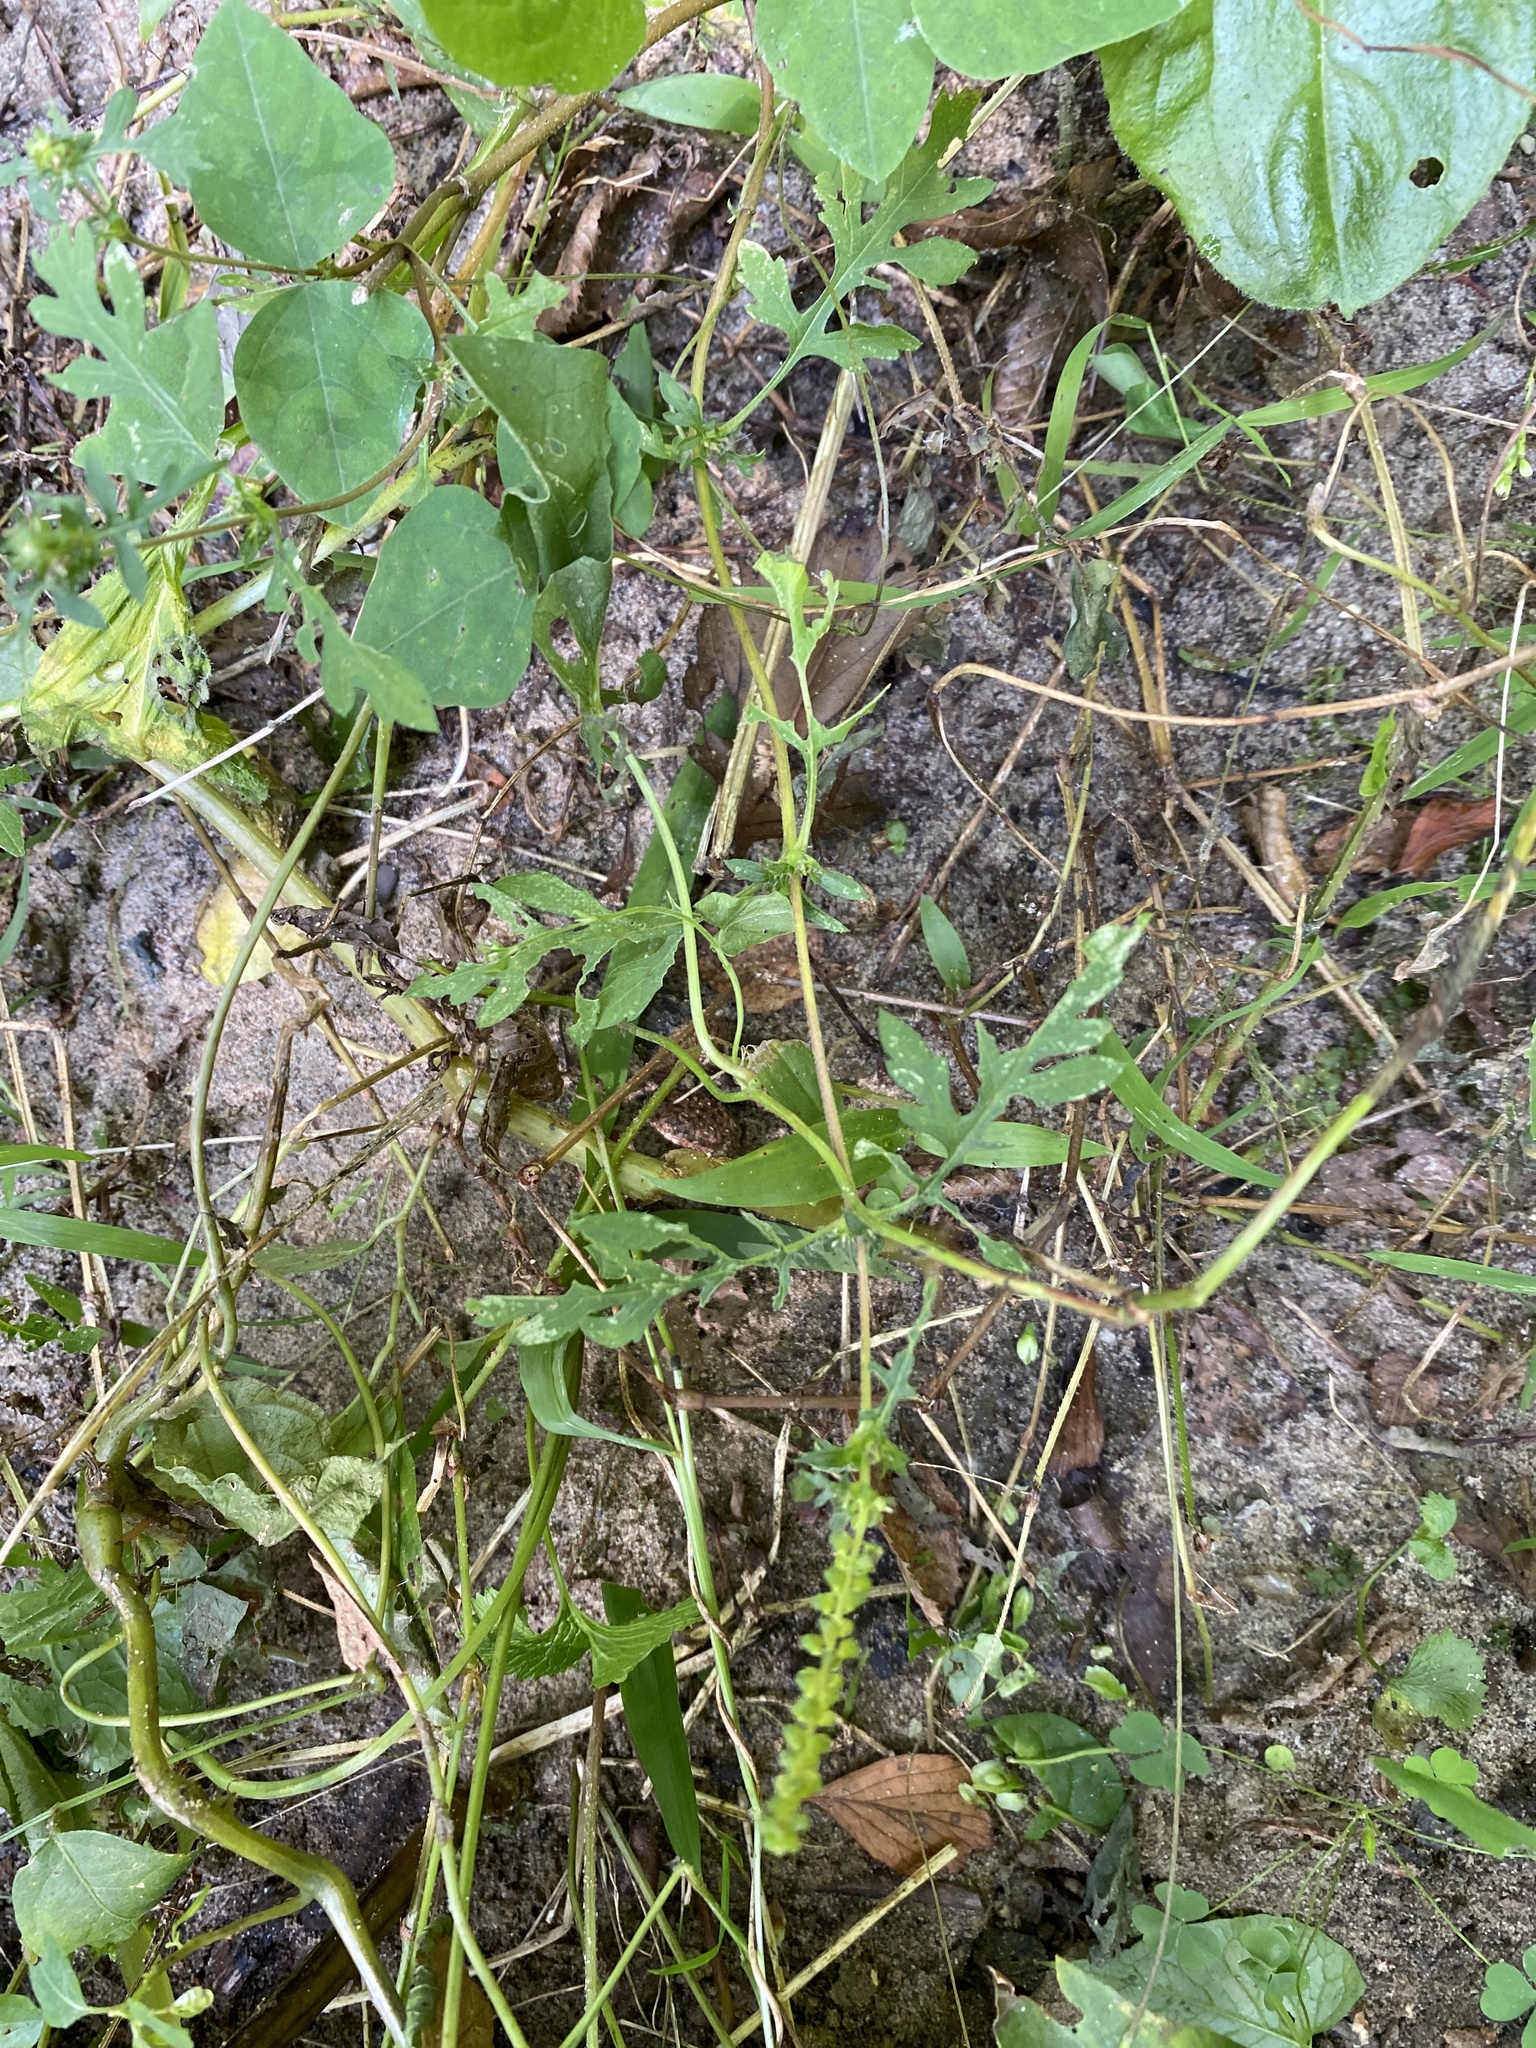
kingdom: Plantae
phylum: Tracheophyta
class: Magnoliopsida
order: Asterales
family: Asteraceae
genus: Ambrosia
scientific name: Ambrosia artemisiifolia
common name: Annual ragweed
